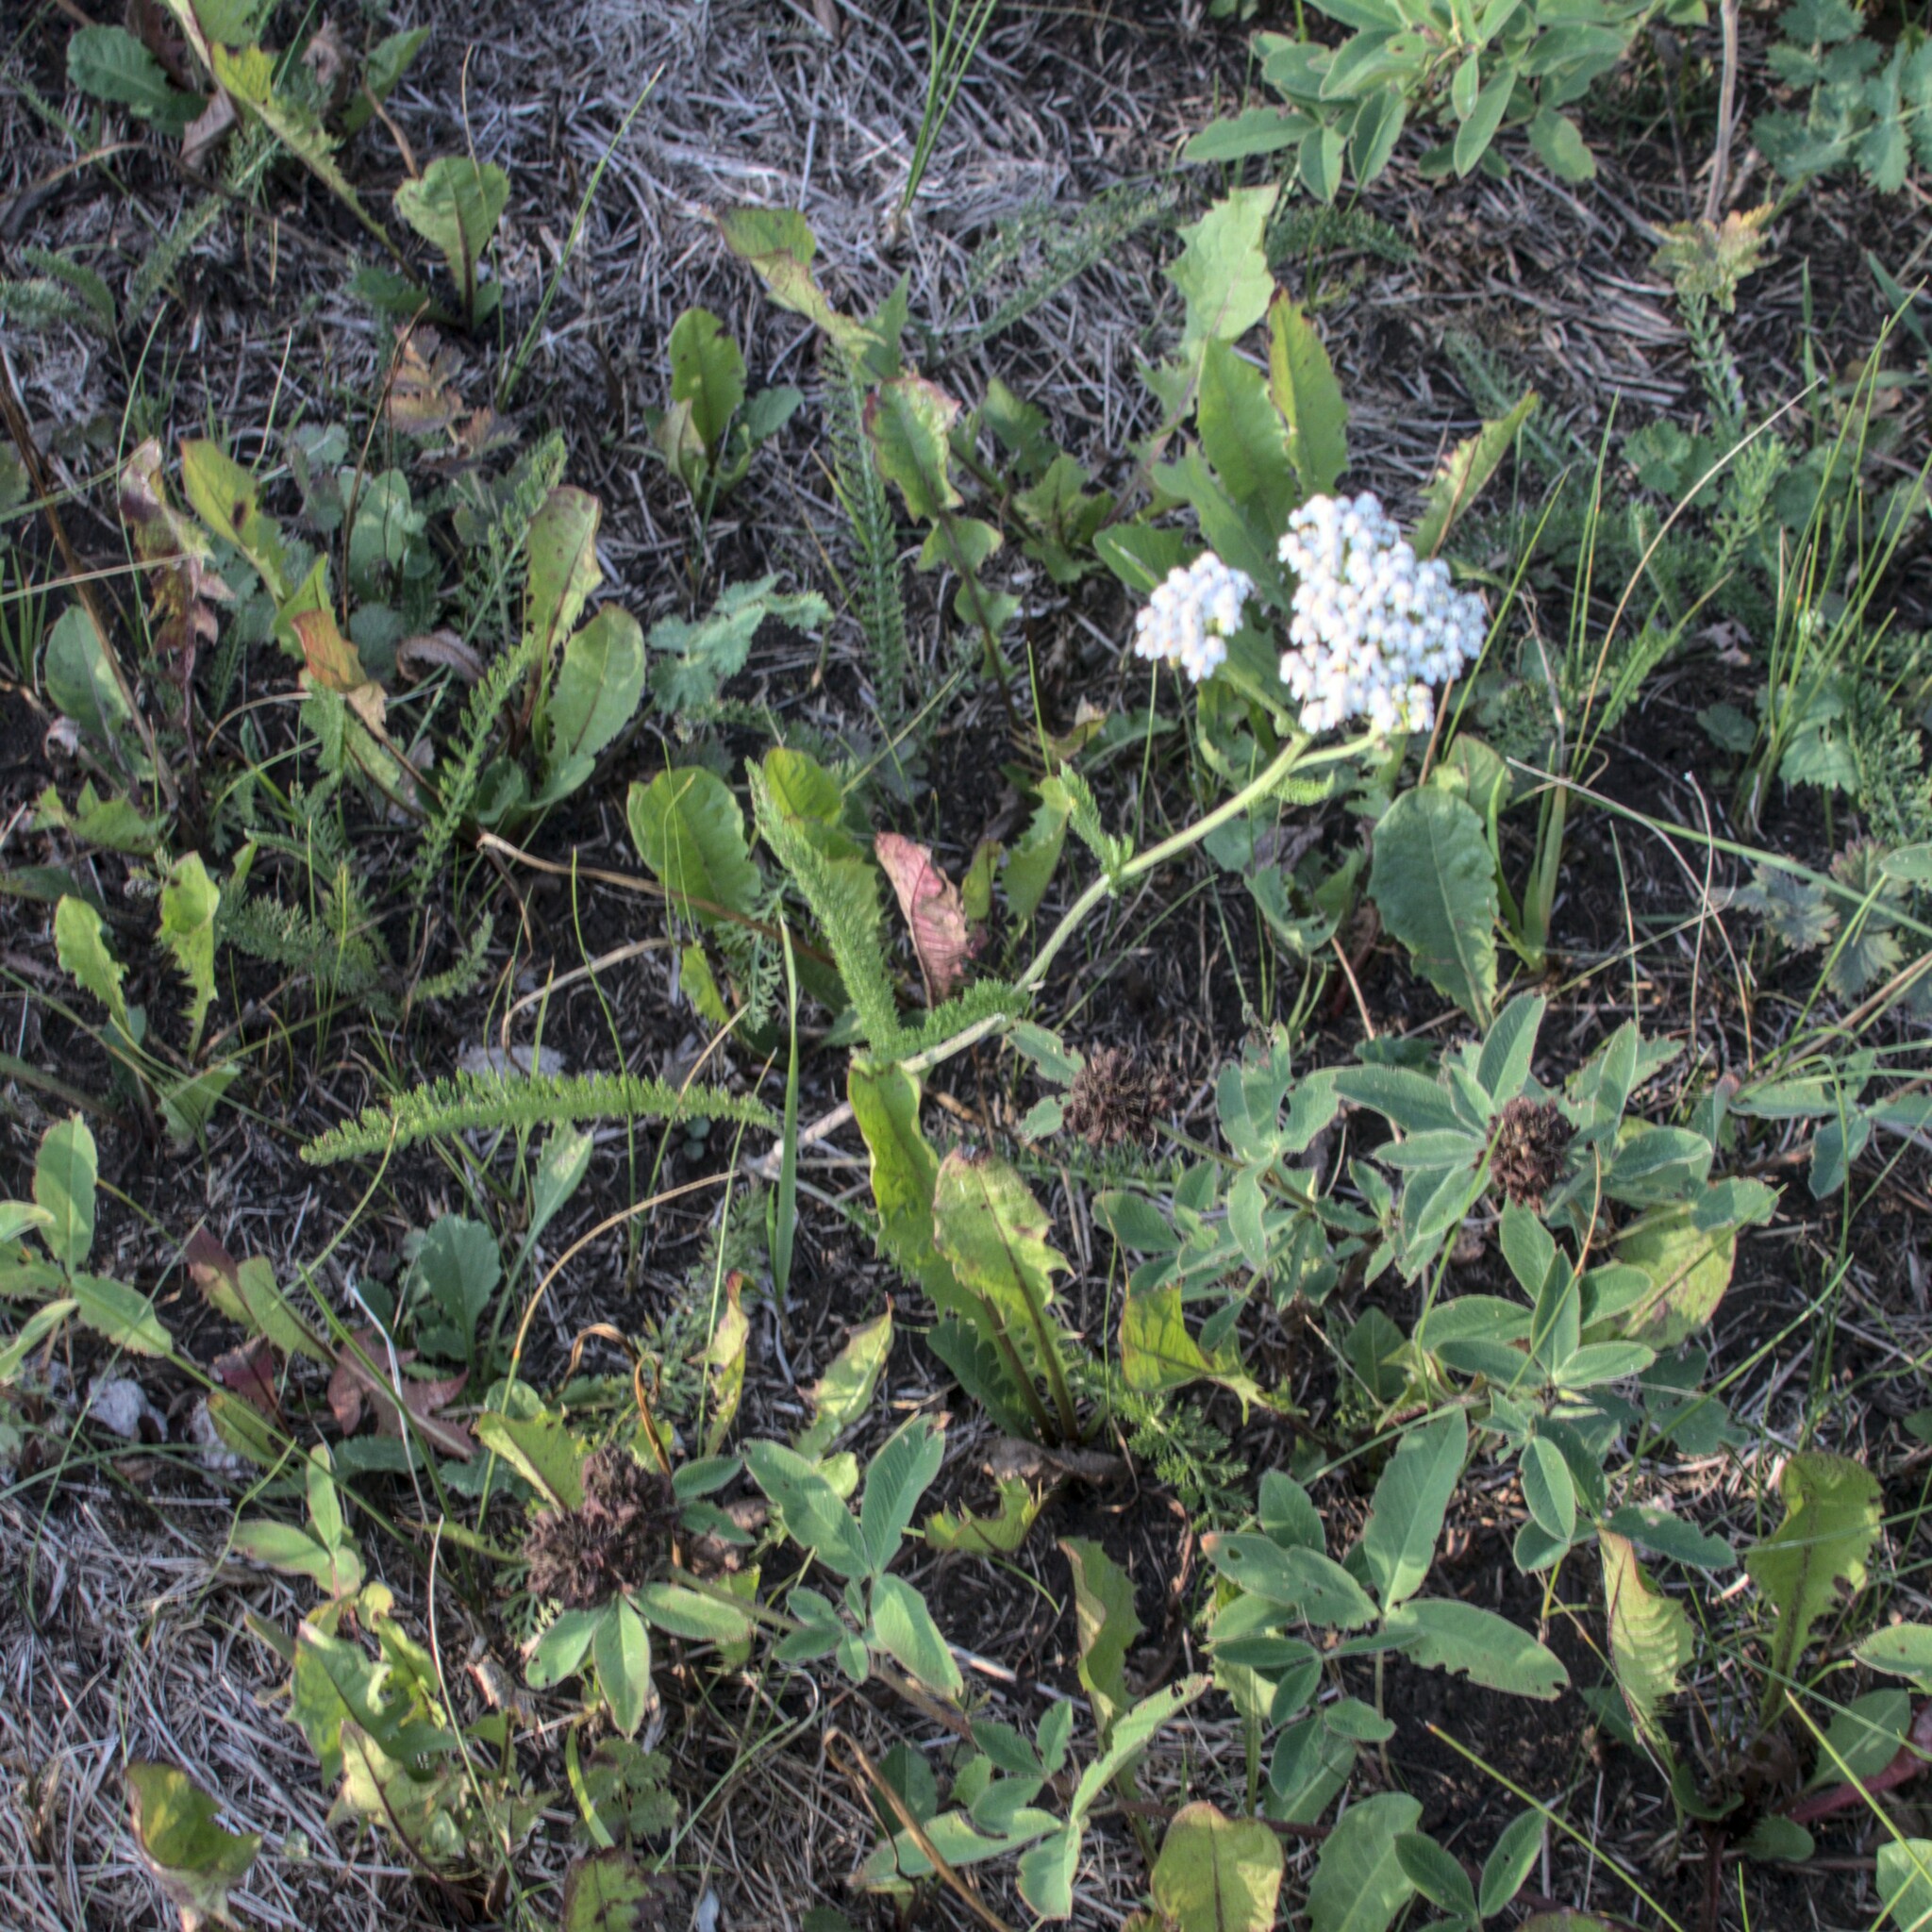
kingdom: Plantae
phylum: Tracheophyta
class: Magnoliopsida
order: Asterales
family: Asteraceae
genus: Achillea
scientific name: Achillea millefolium
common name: Yarrow
